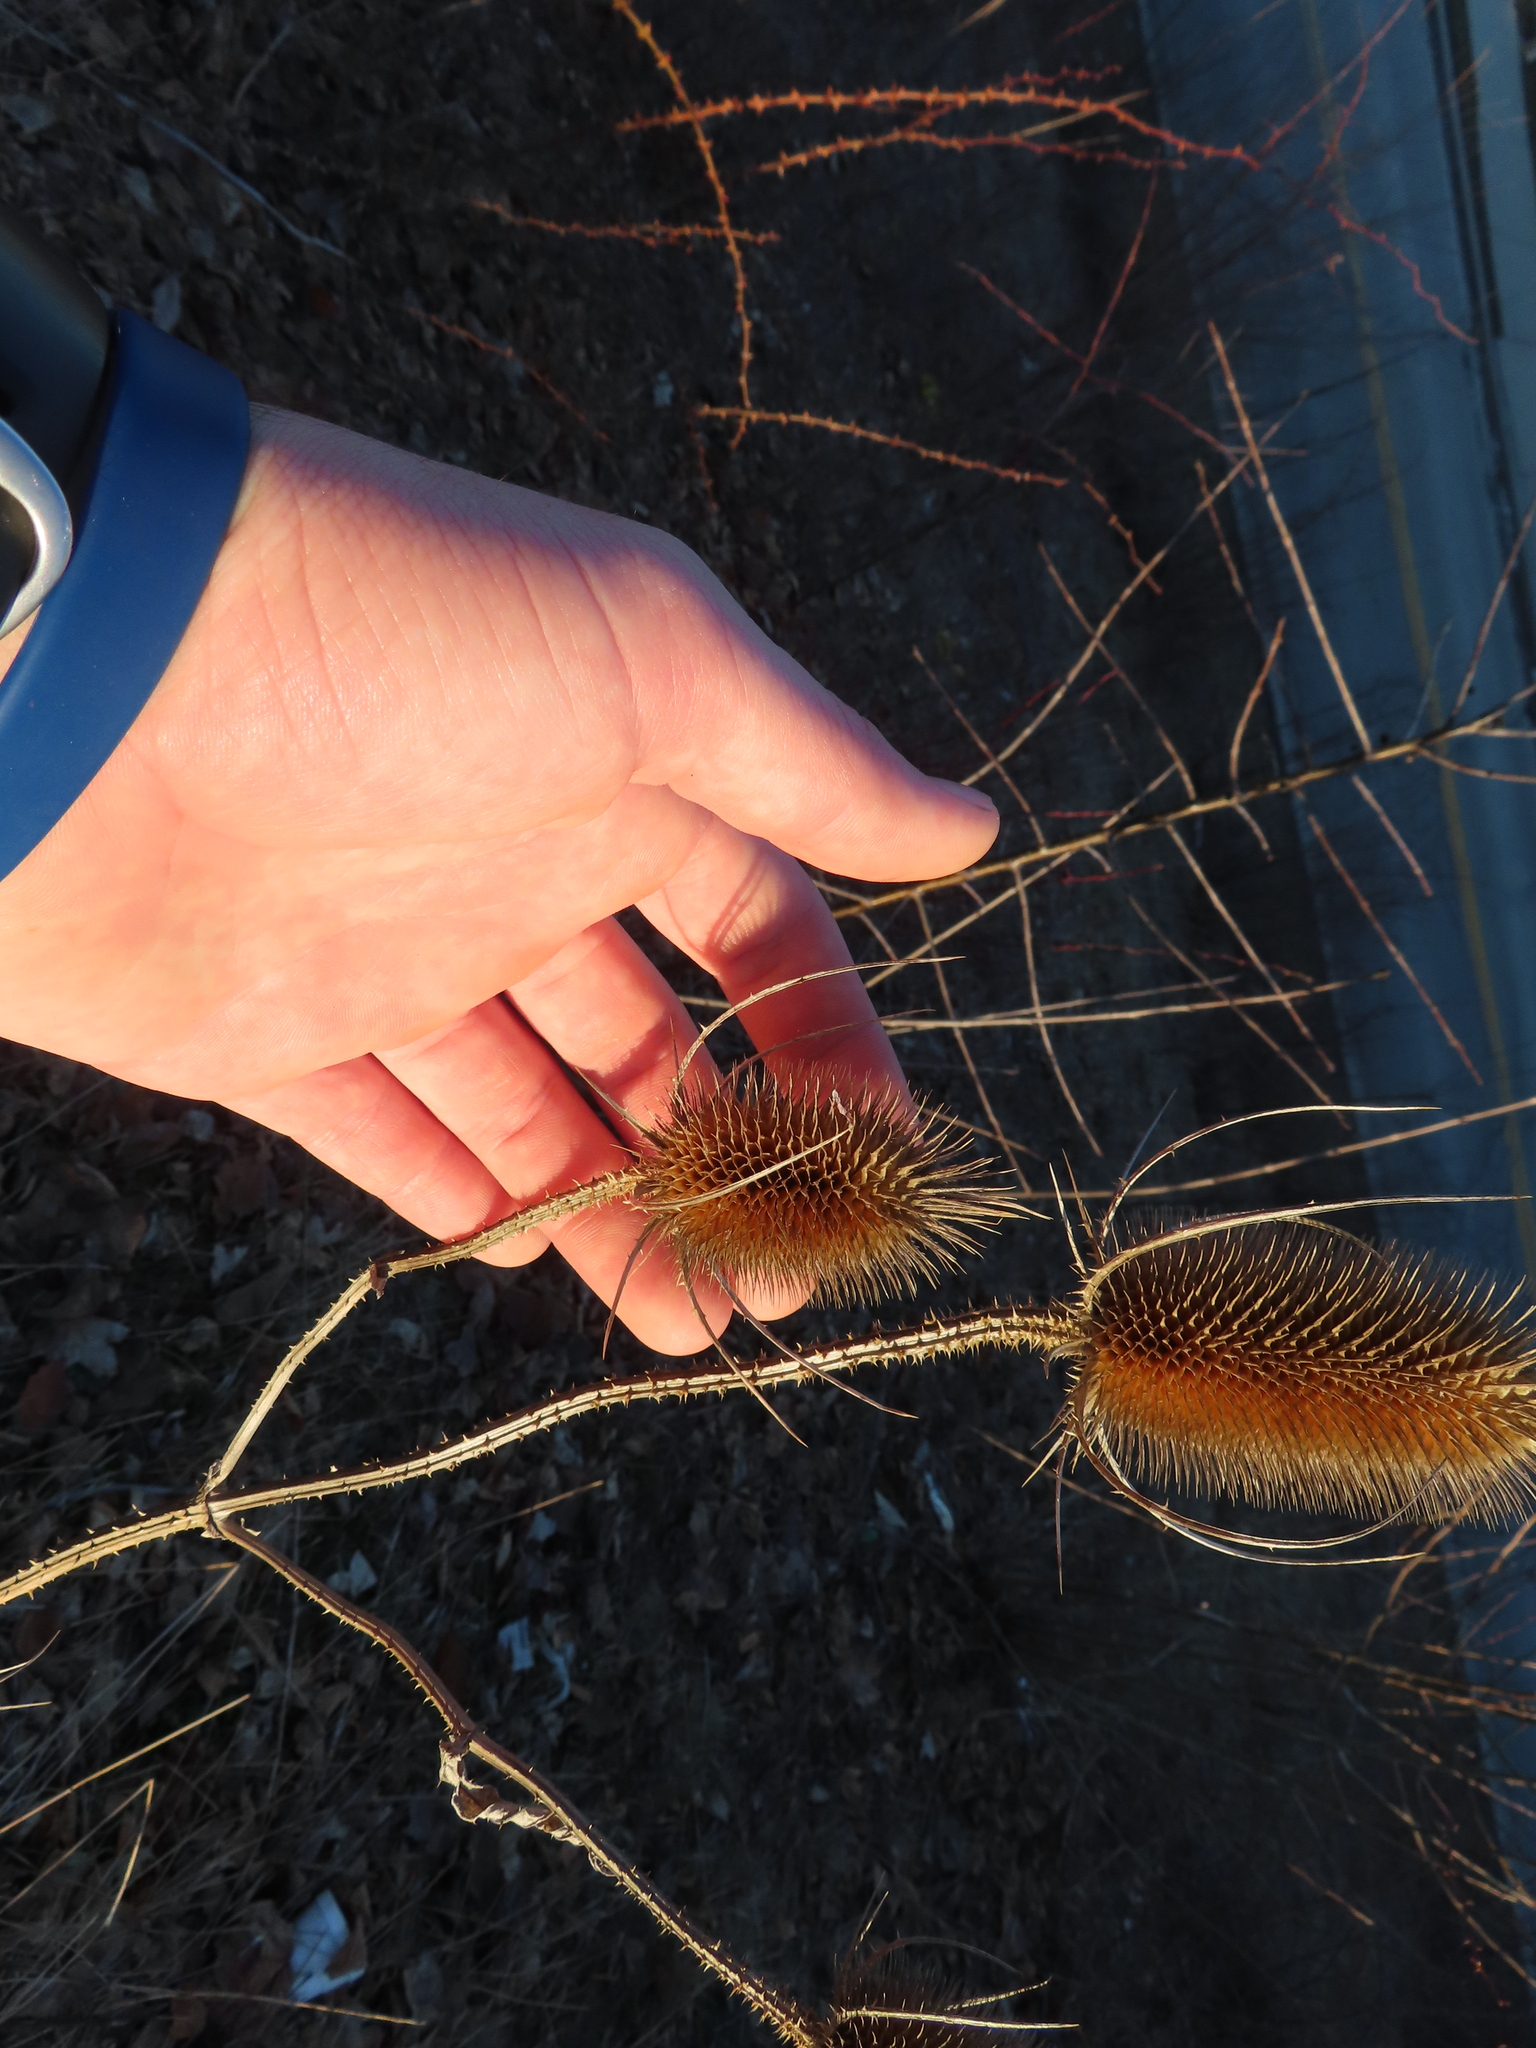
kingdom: Plantae
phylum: Tracheophyta
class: Magnoliopsida
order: Dipsacales
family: Caprifoliaceae
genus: Dipsacus
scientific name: Dipsacus fullonum
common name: Teasel
